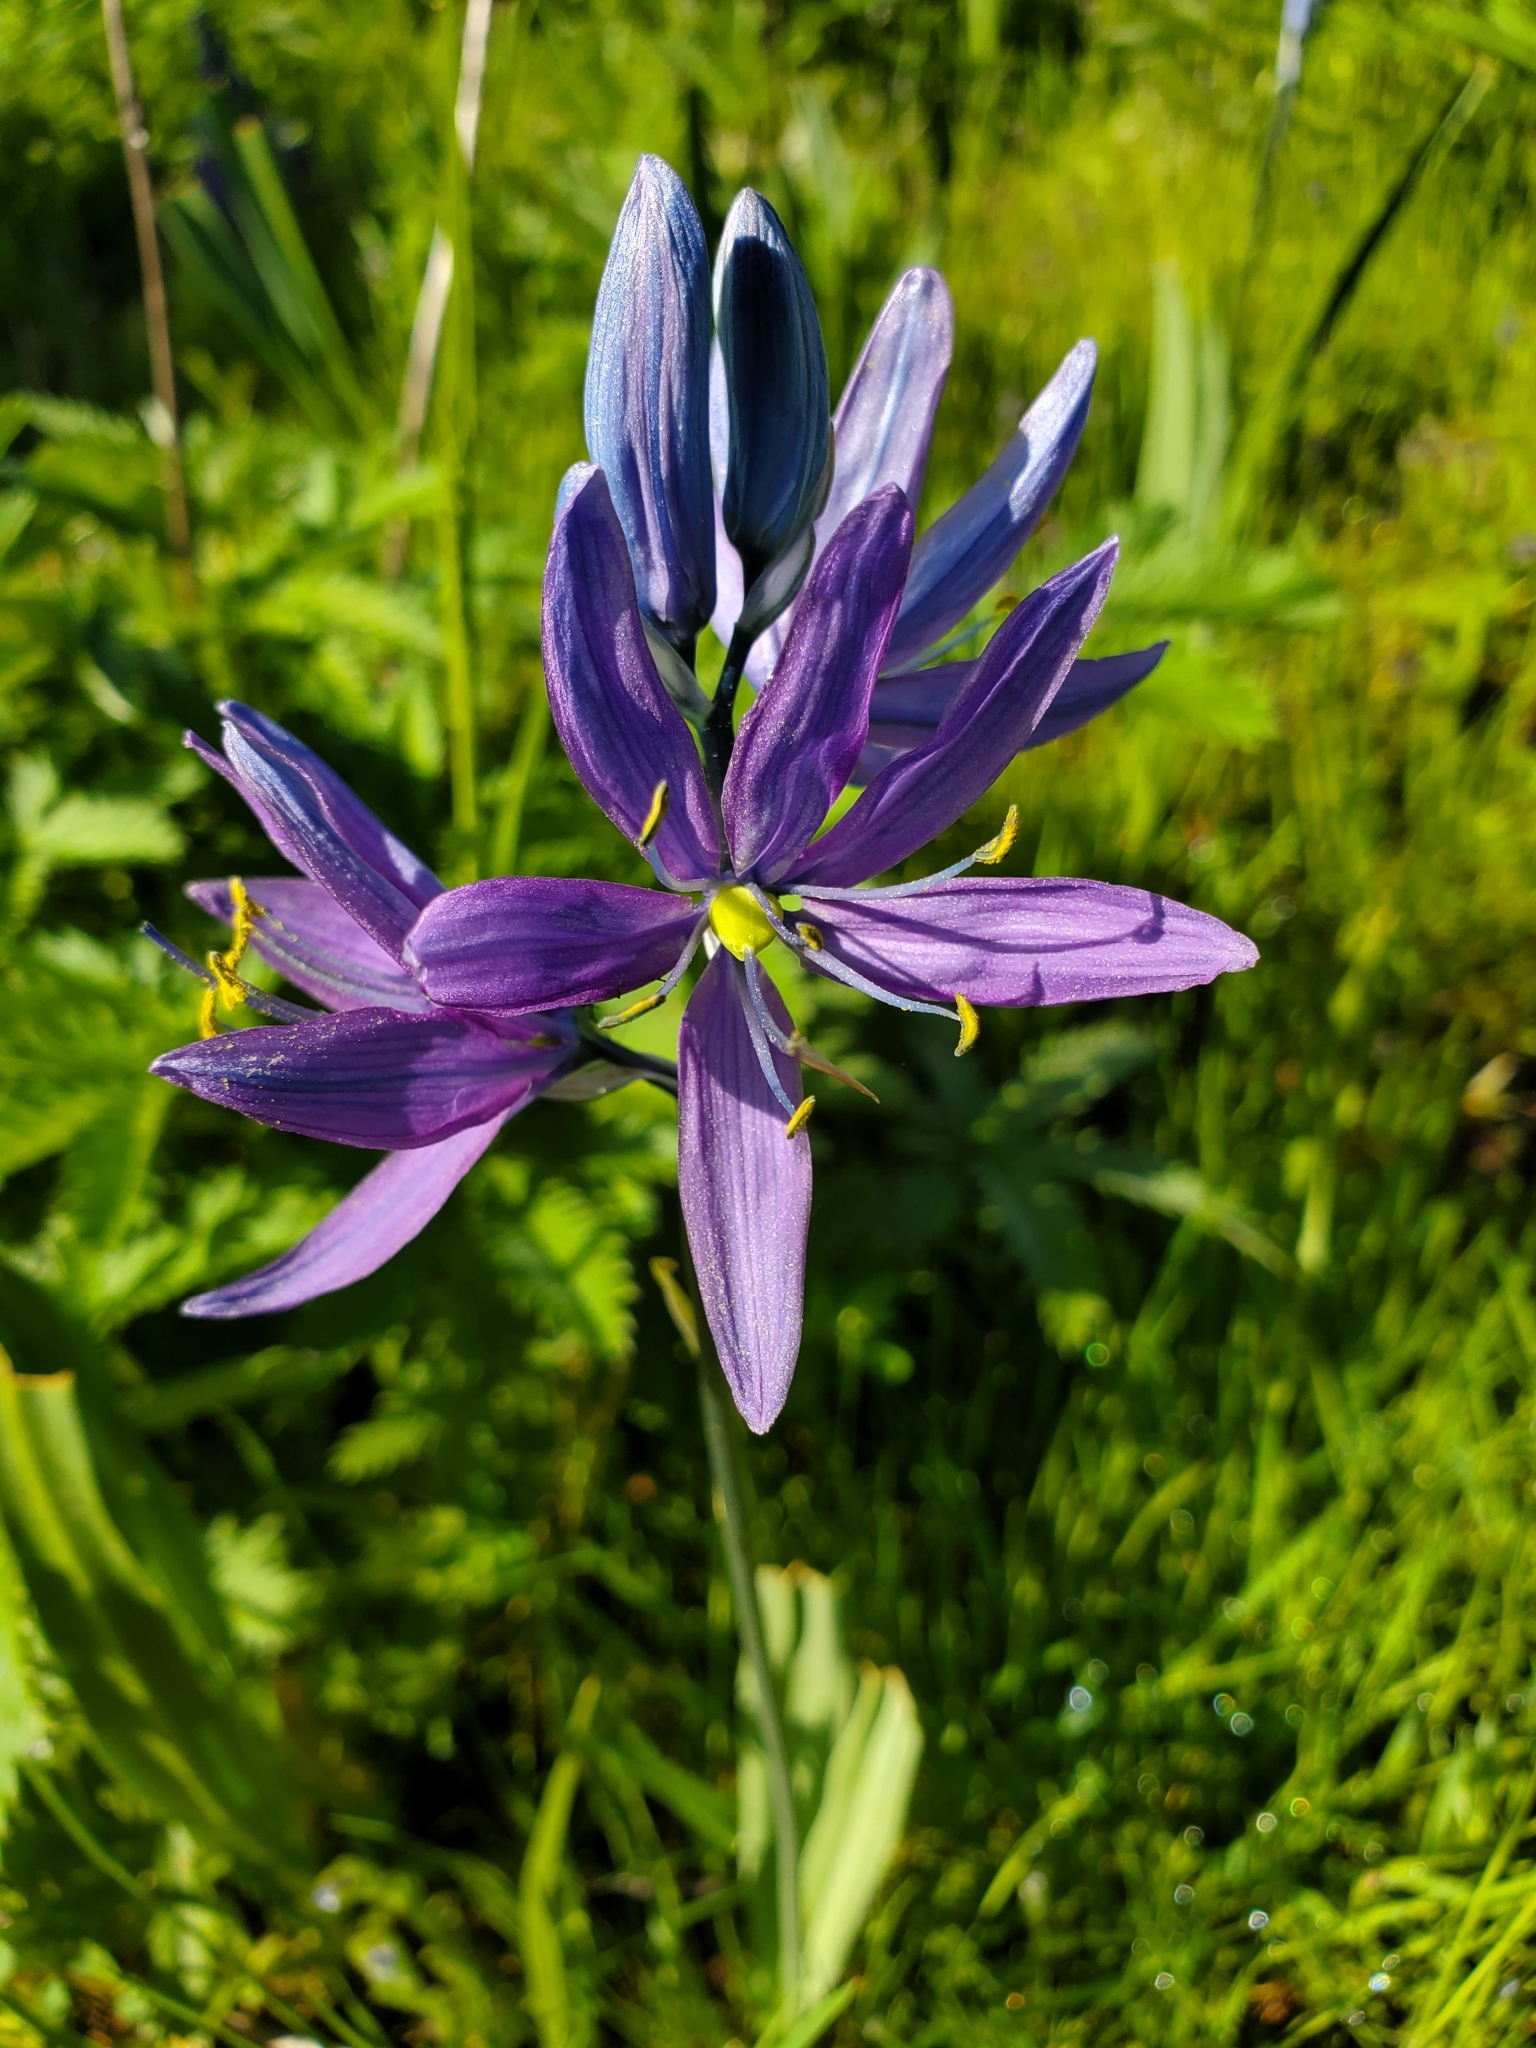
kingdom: Plantae
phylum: Tracheophyta
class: Liliopsida
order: Asparagales
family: Asparagaceae
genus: Camassia
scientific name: Camassia quamash
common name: Common camas
